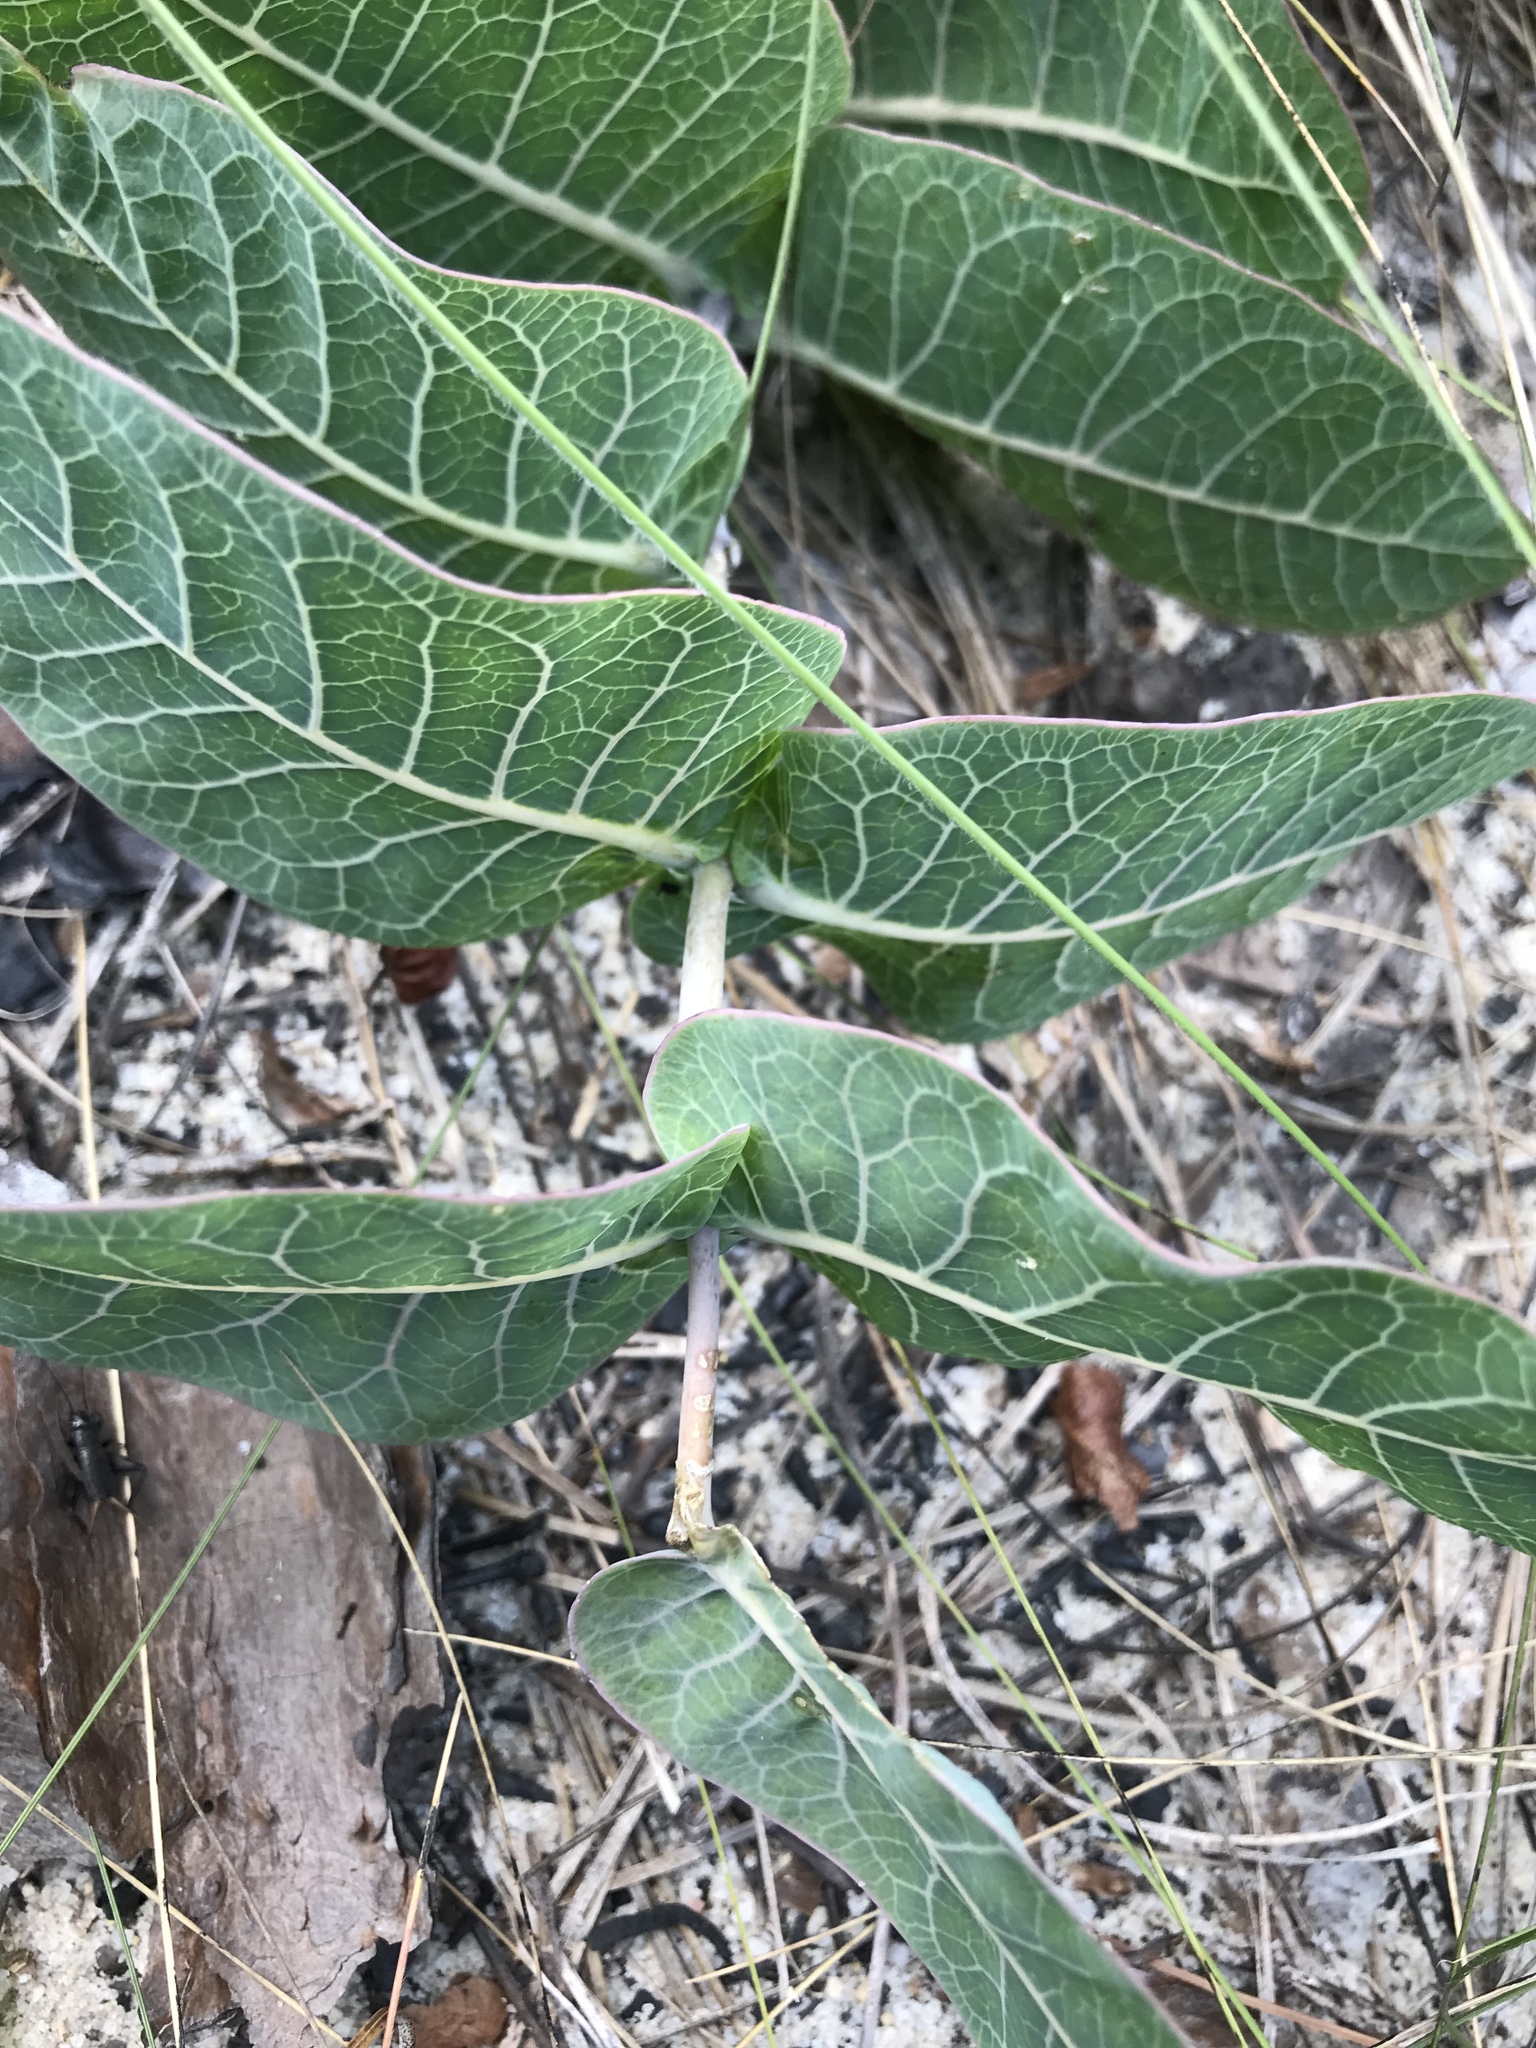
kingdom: Plantae
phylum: Tracheophyta
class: Magnoliopsida
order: Gentianales
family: Apocynaceae
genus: Asclepias
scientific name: Asclepias humistrata
